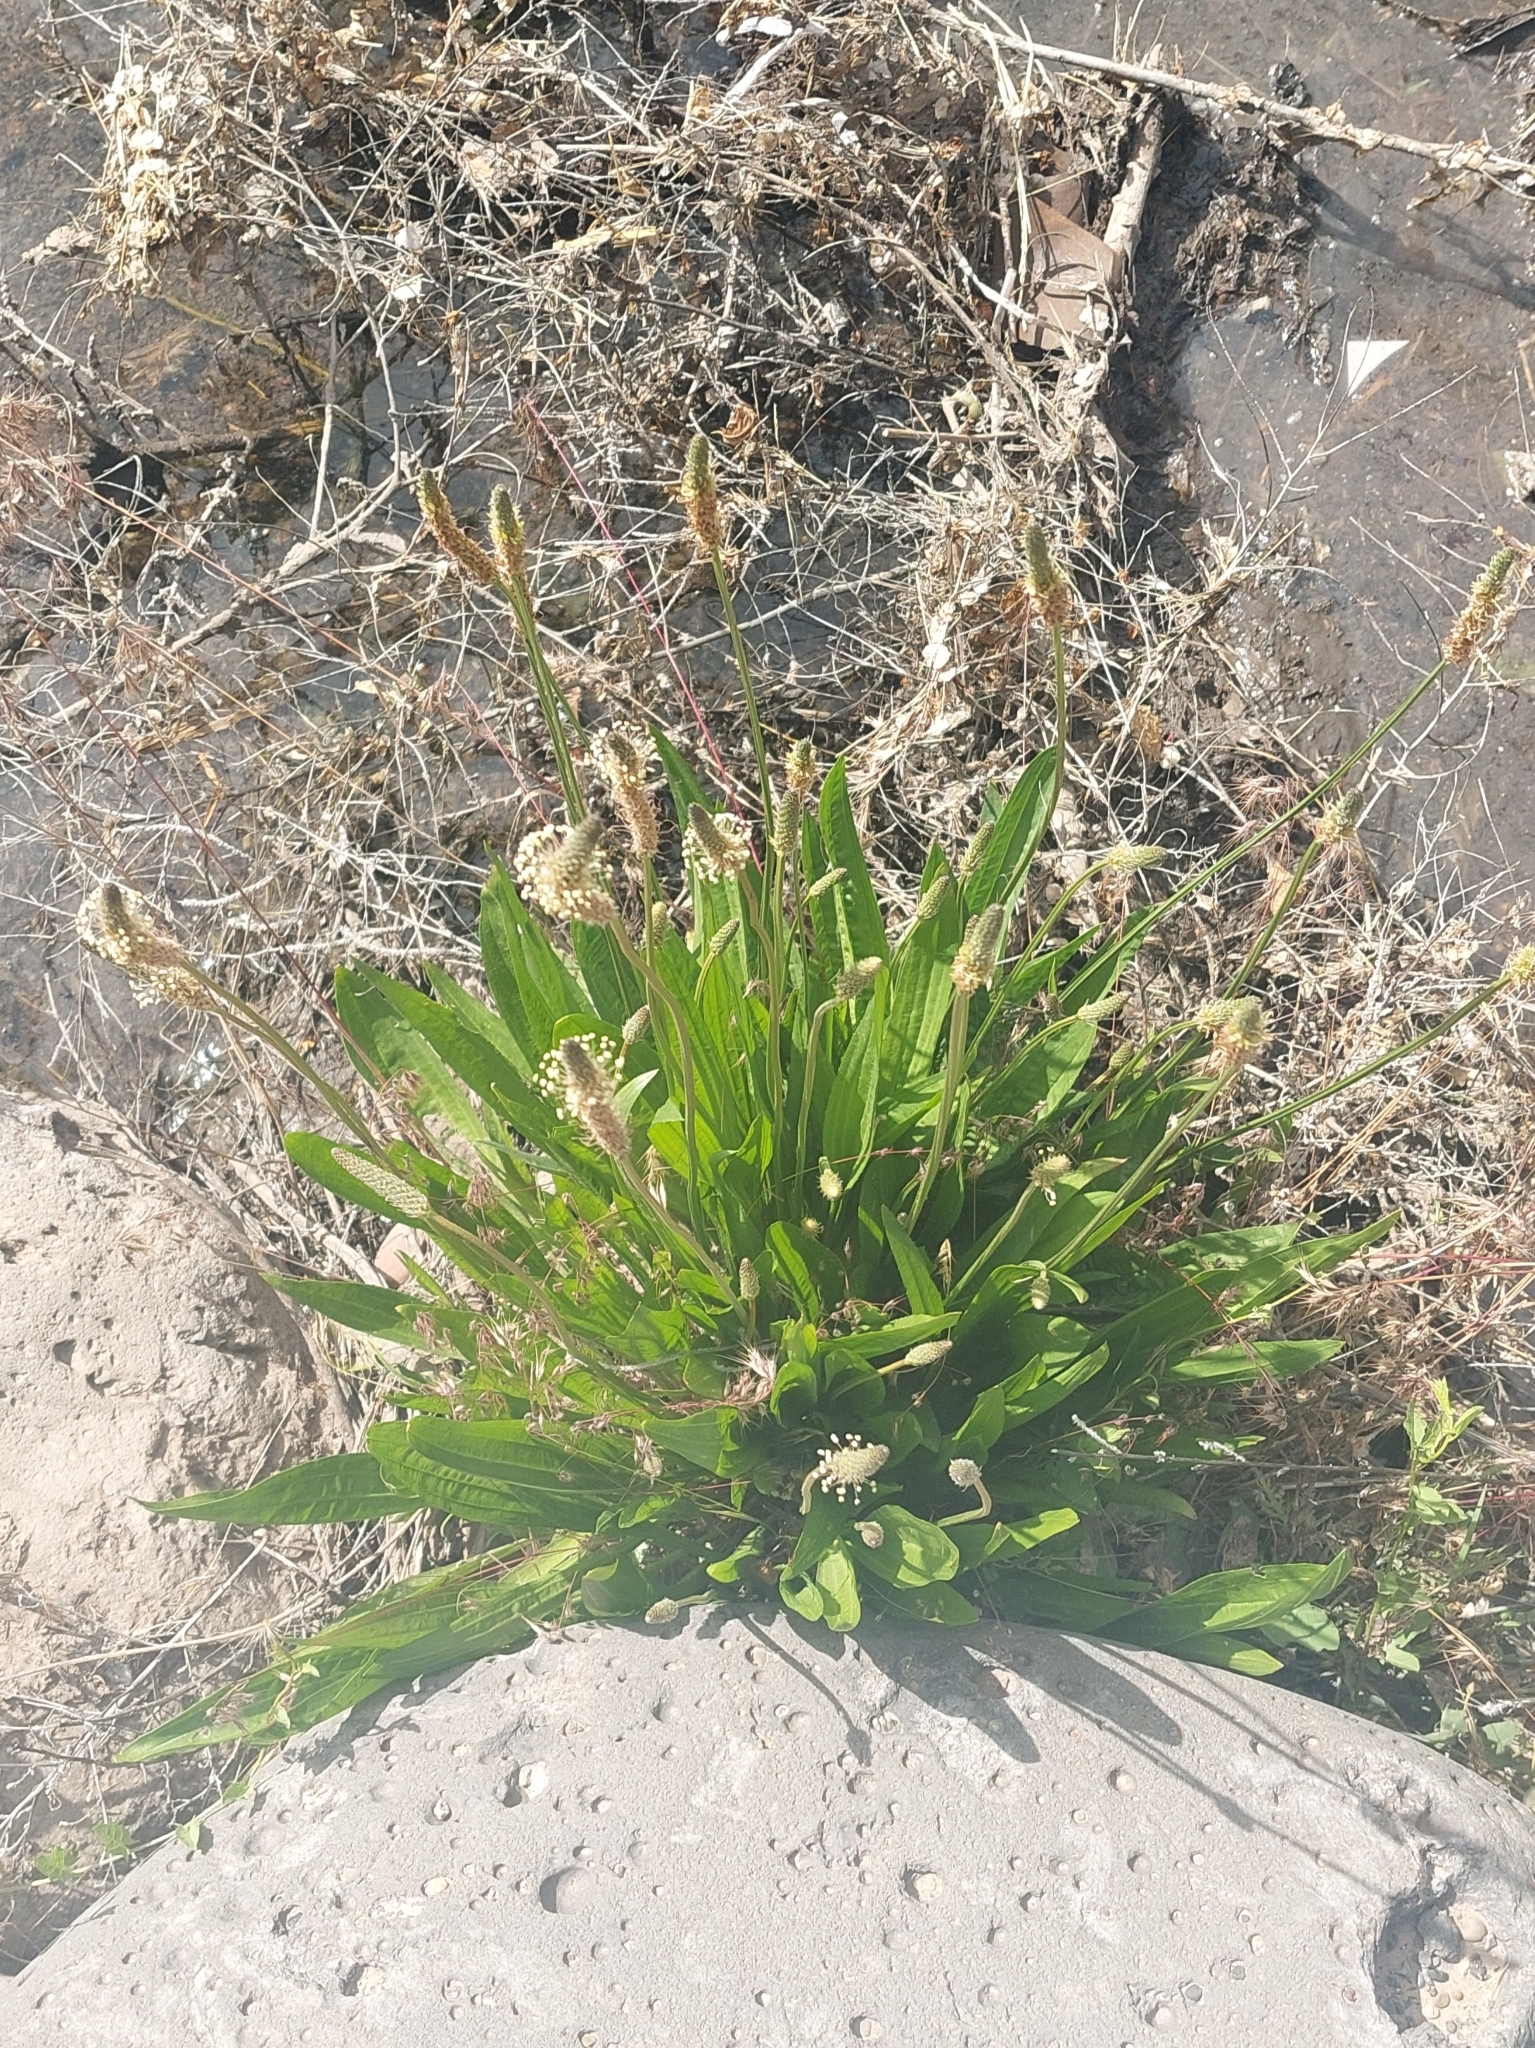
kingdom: Plantae
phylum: Tracheophyta
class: Magnoliopsida
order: Lamiales
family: Plantaginaceae
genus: Plantago
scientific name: Plantago lanceolata
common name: Ribwort plantain
